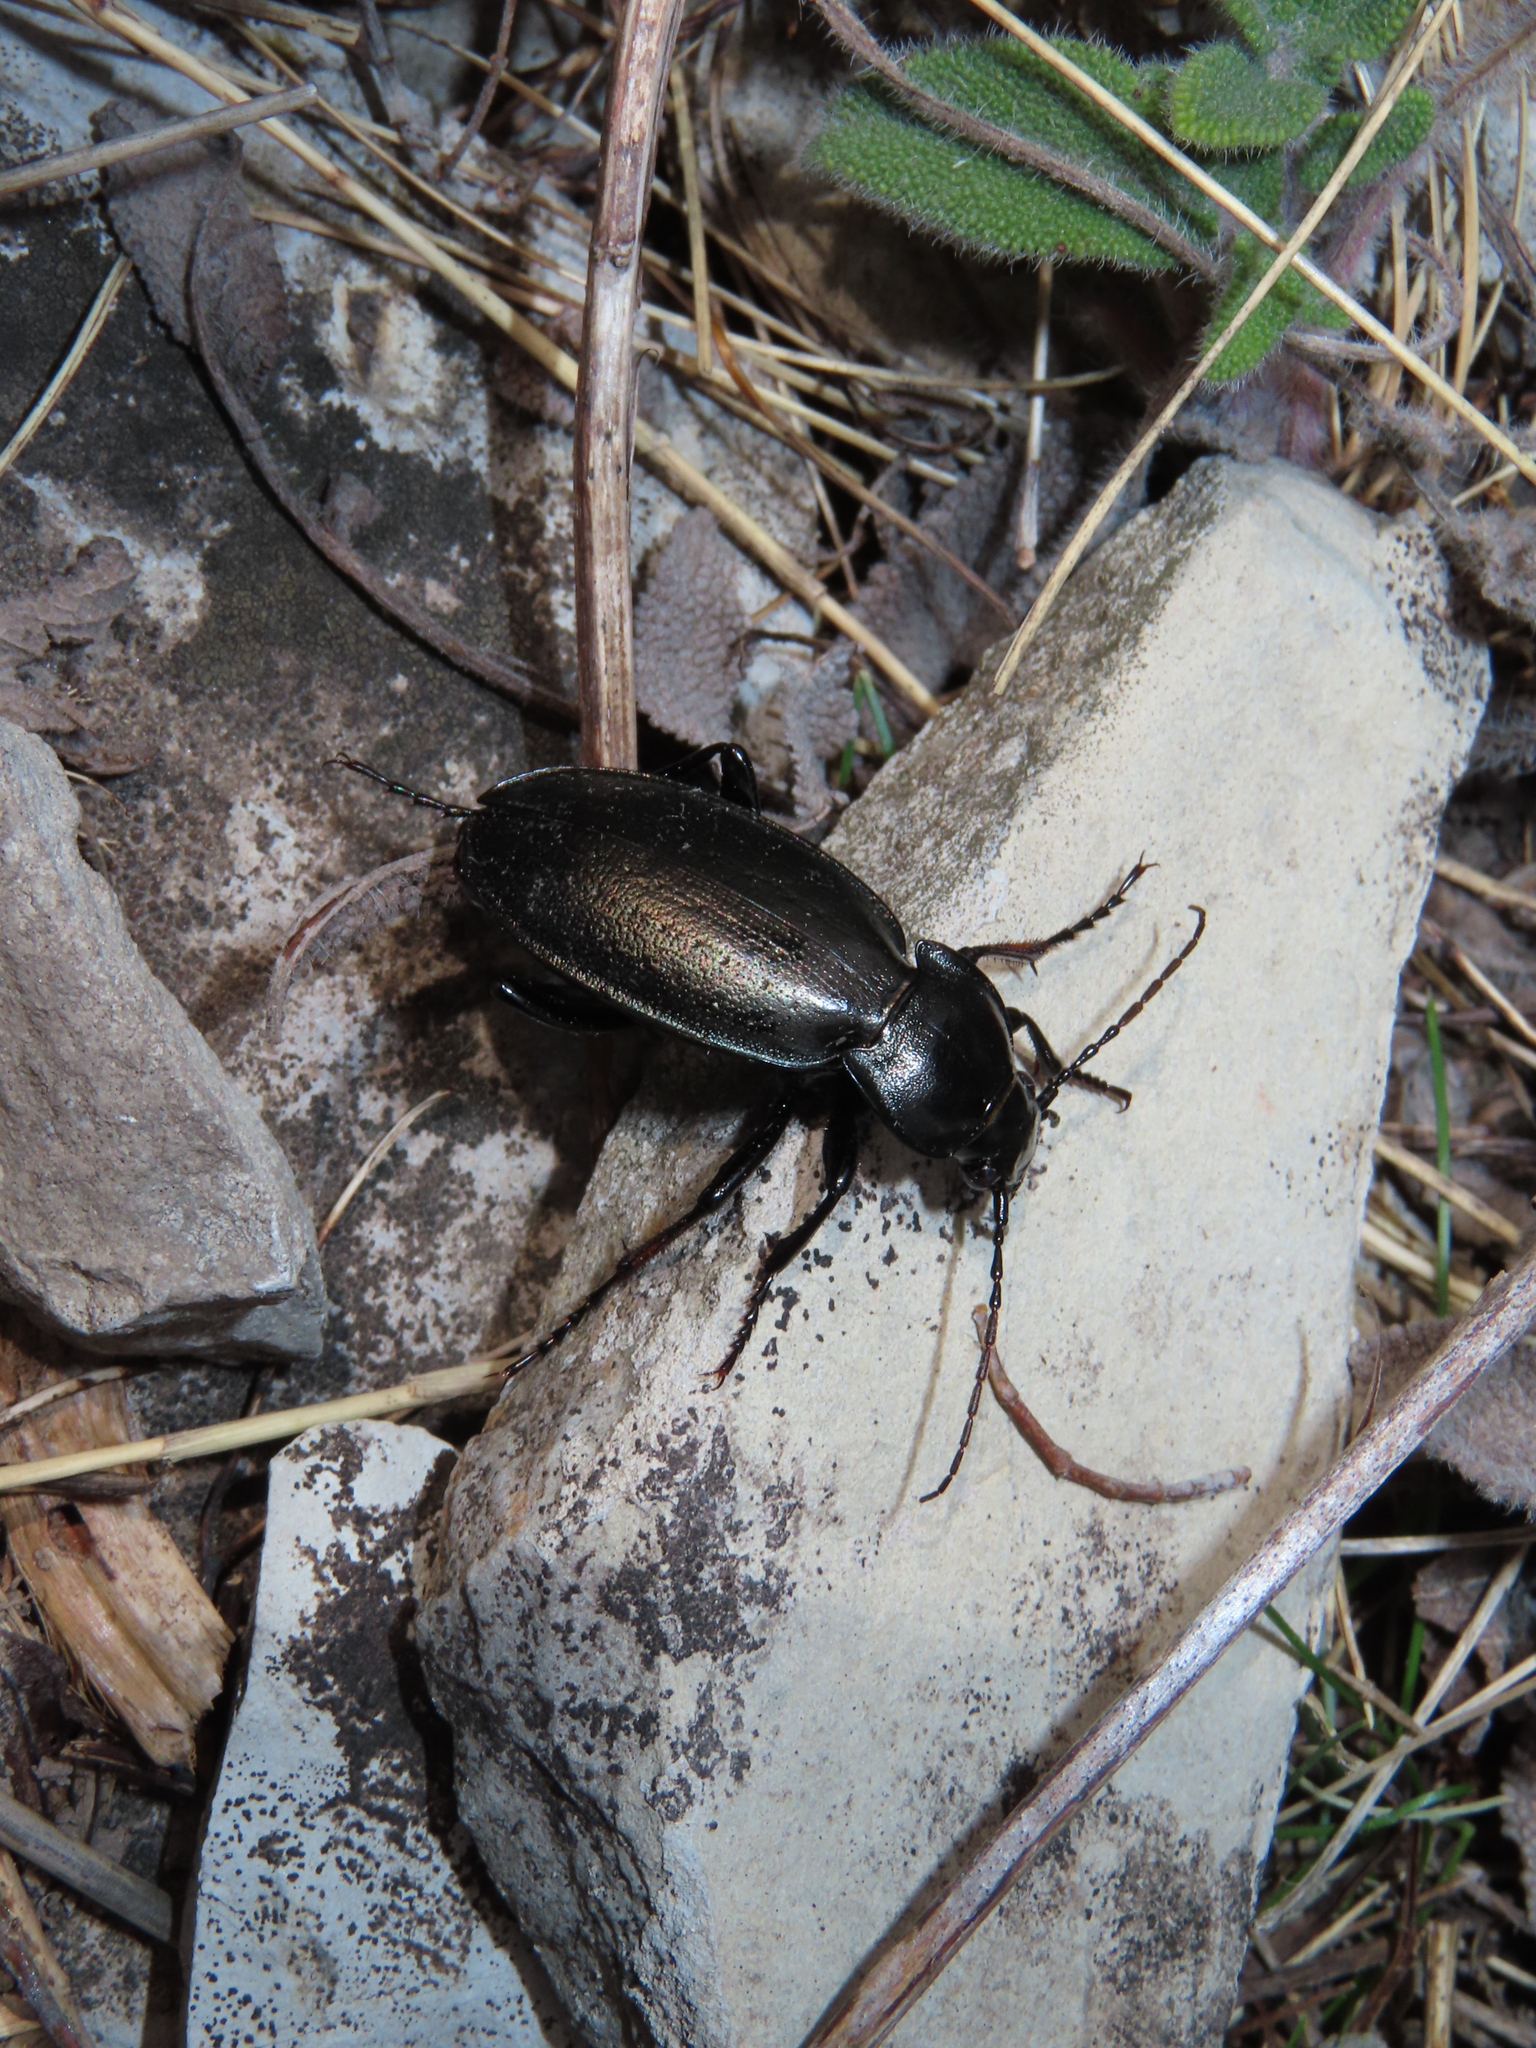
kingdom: Animalia
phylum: Arthropoda
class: Insecta
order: Coleoptera
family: Carabidae
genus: Carabus
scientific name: Carabus perrini
